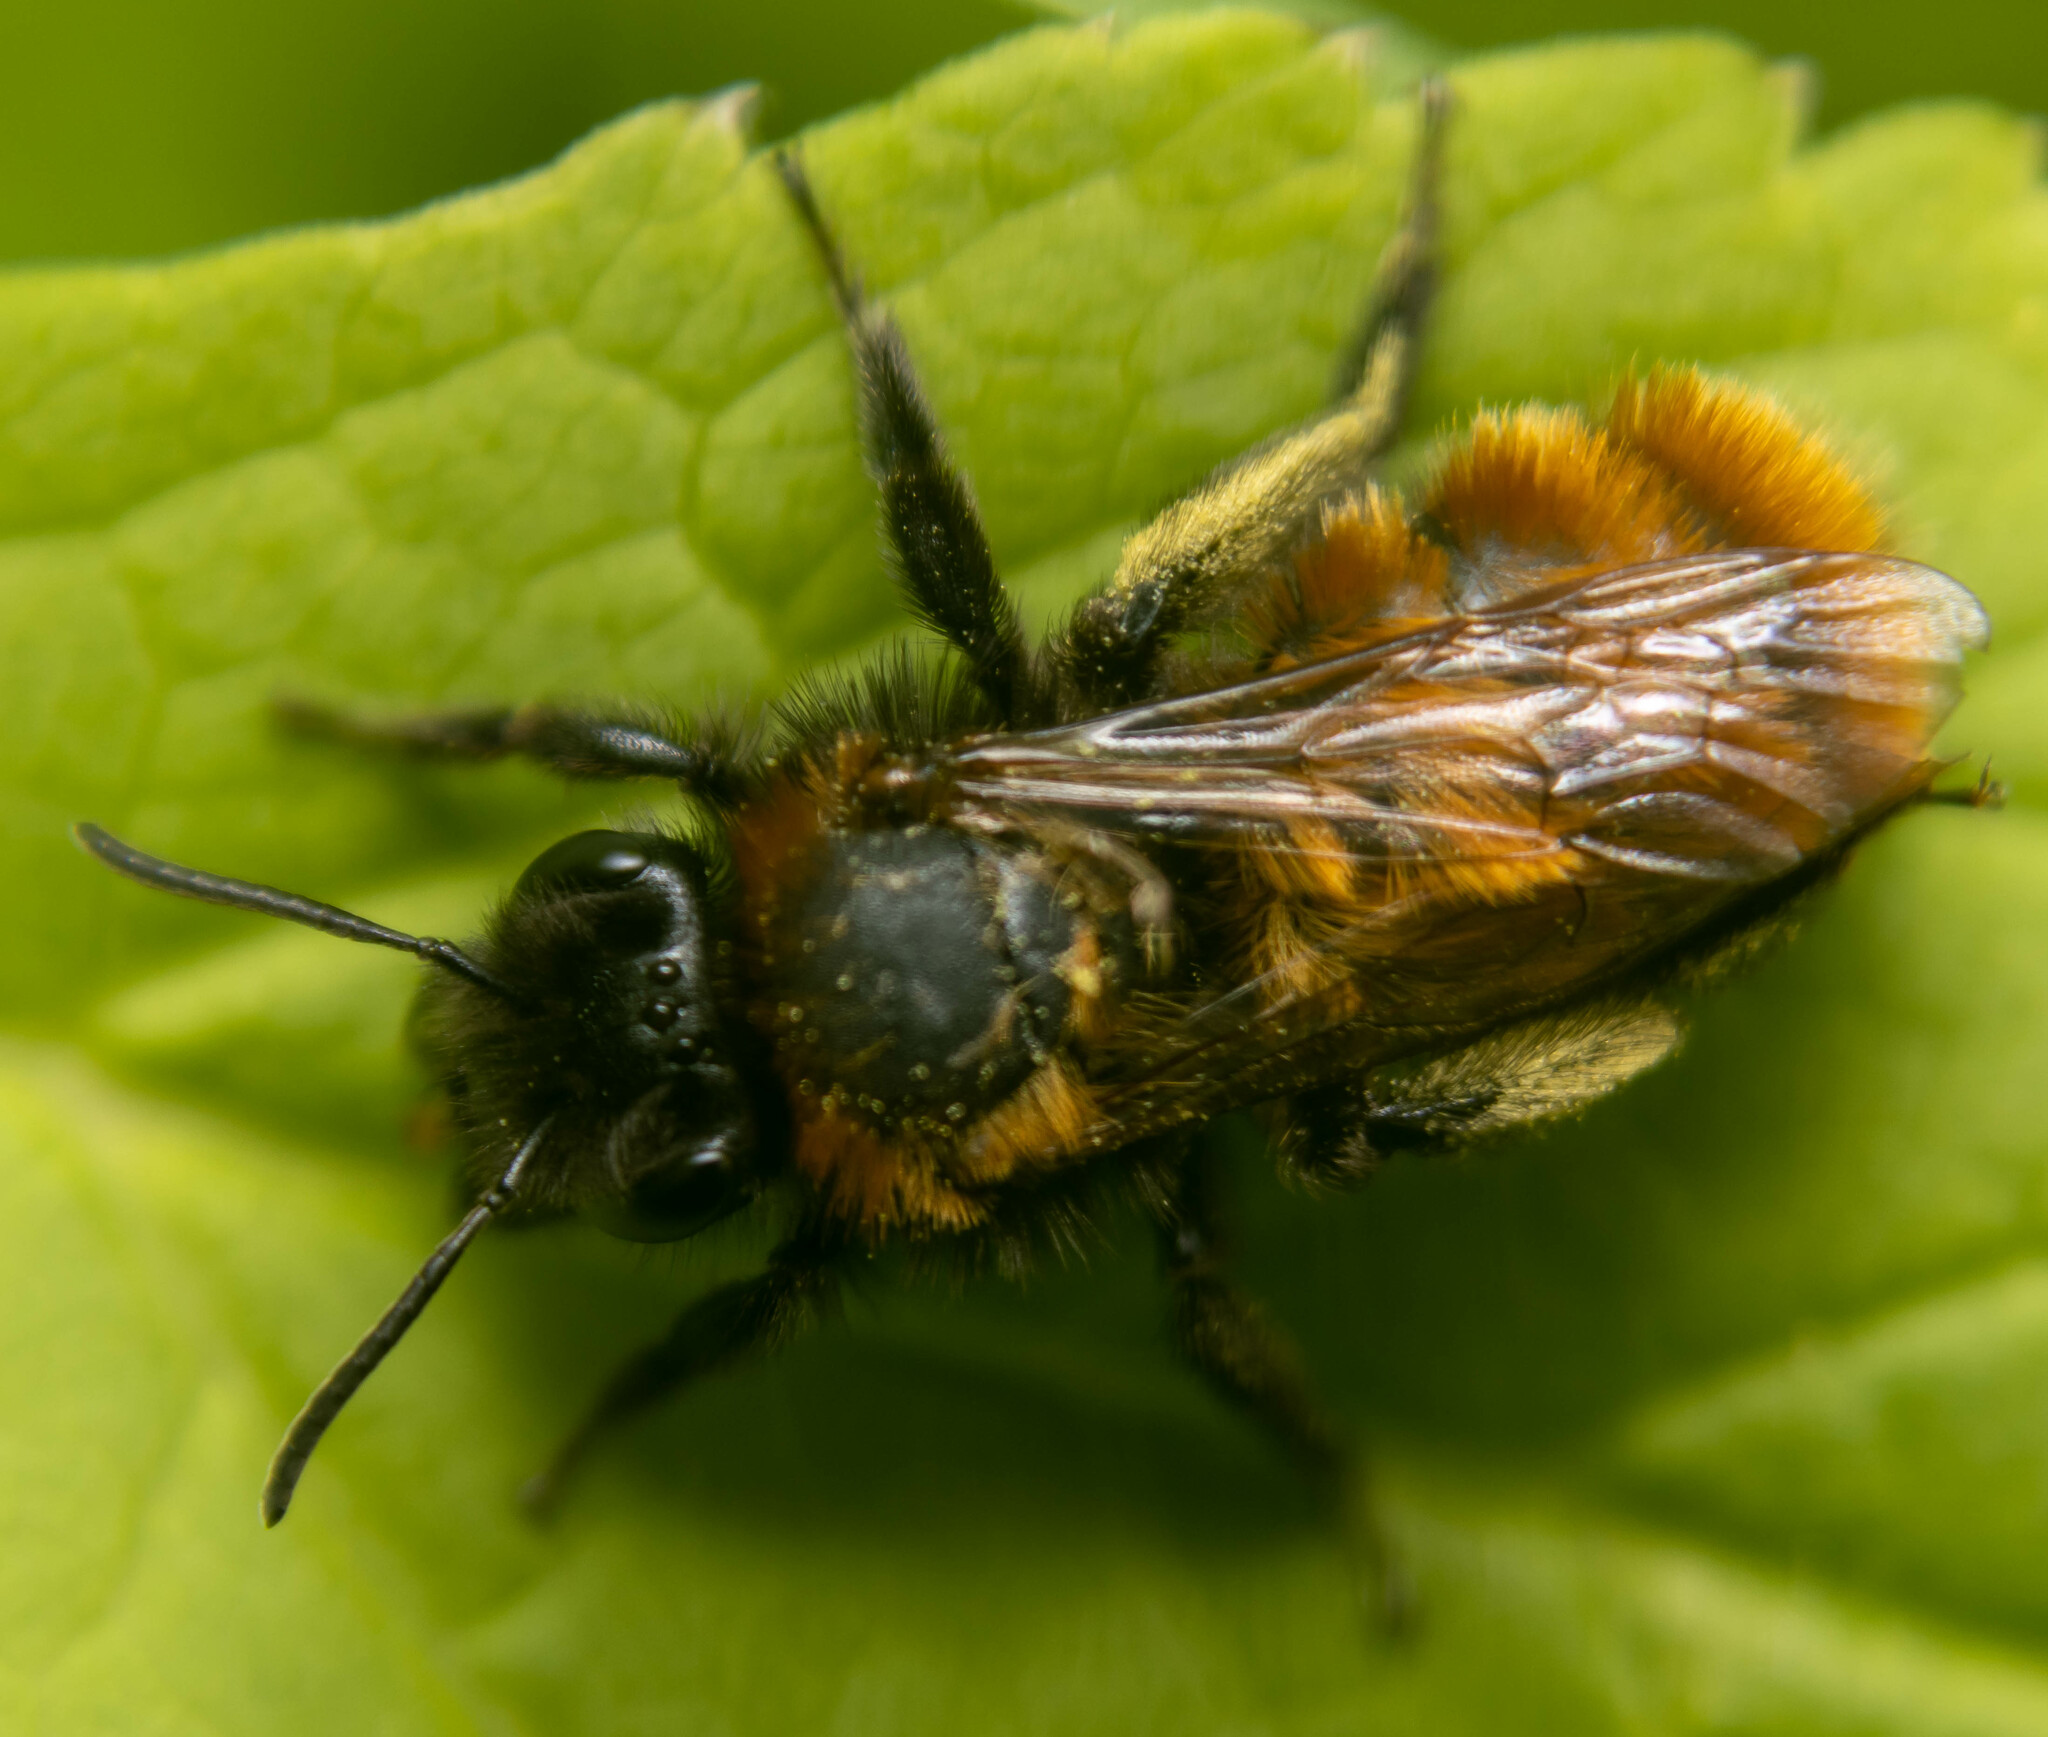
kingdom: Animalia
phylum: Arthropoda
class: Insecta
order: Hymenoptera
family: Andrenidae
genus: Andrena
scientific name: Andrena fulva
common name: Tawny mining bee
